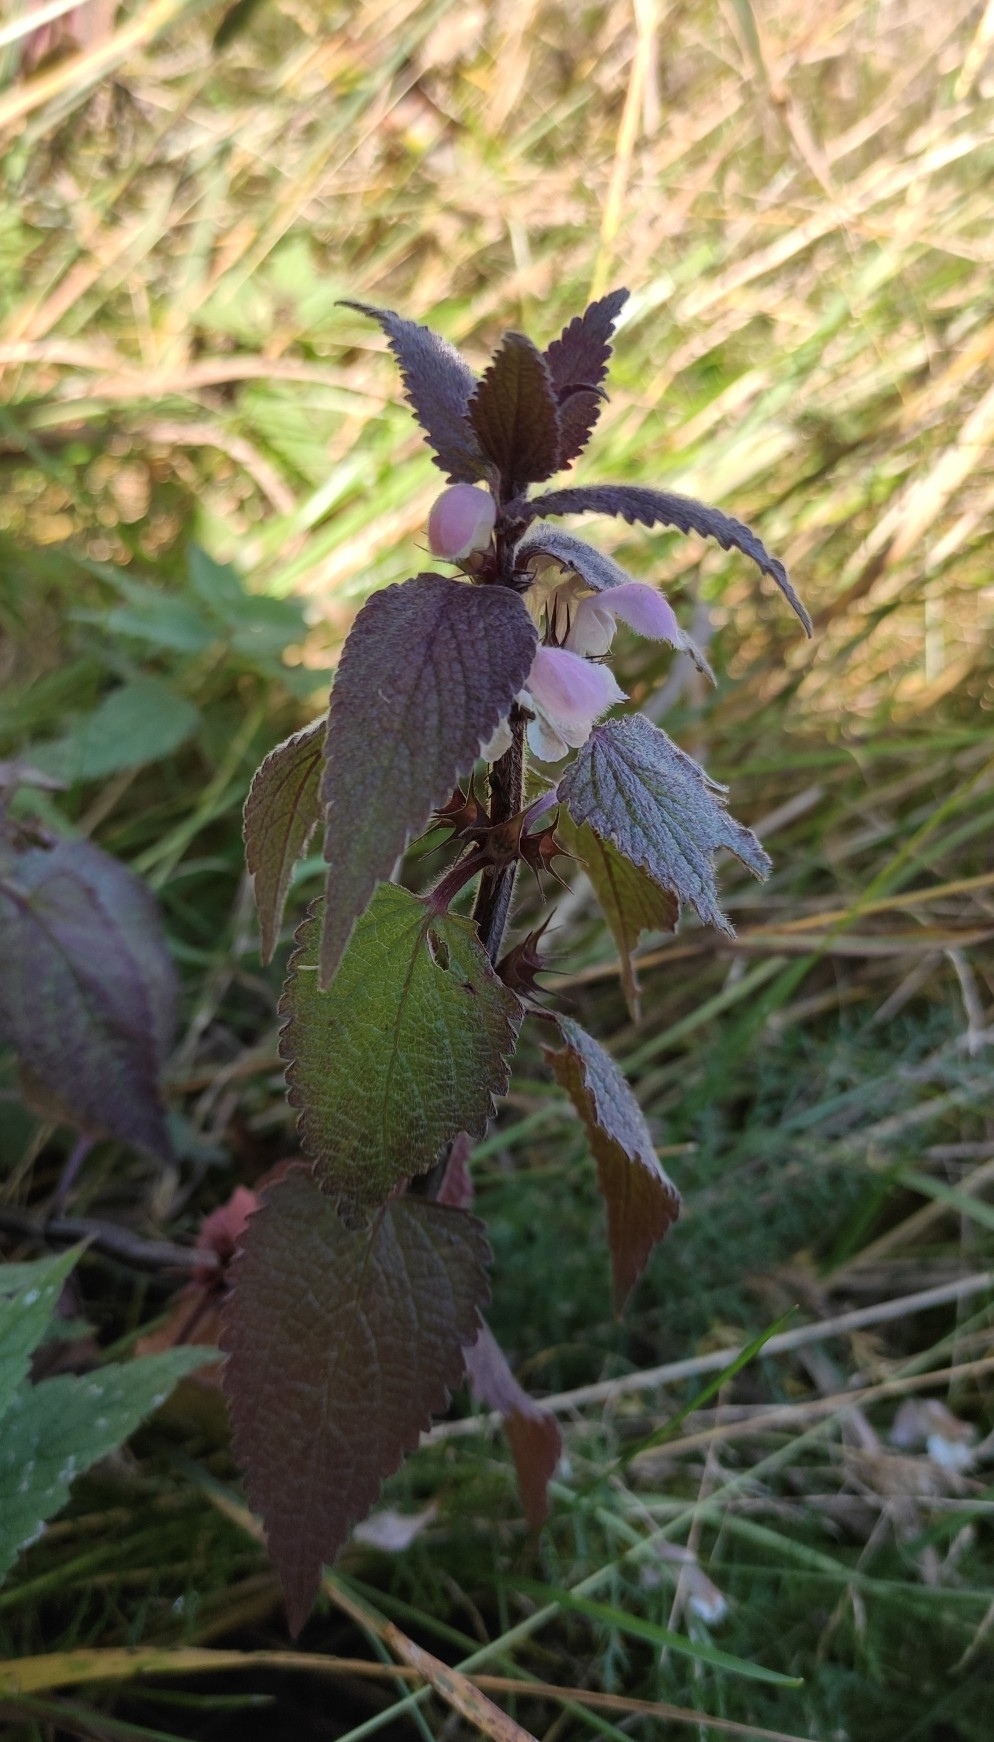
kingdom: Plantae
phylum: Tracheophyta
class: Magnoliopsida
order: Lamiales
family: Lamiaceae
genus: Lamium
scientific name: Lamium album
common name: White dead-nettle
